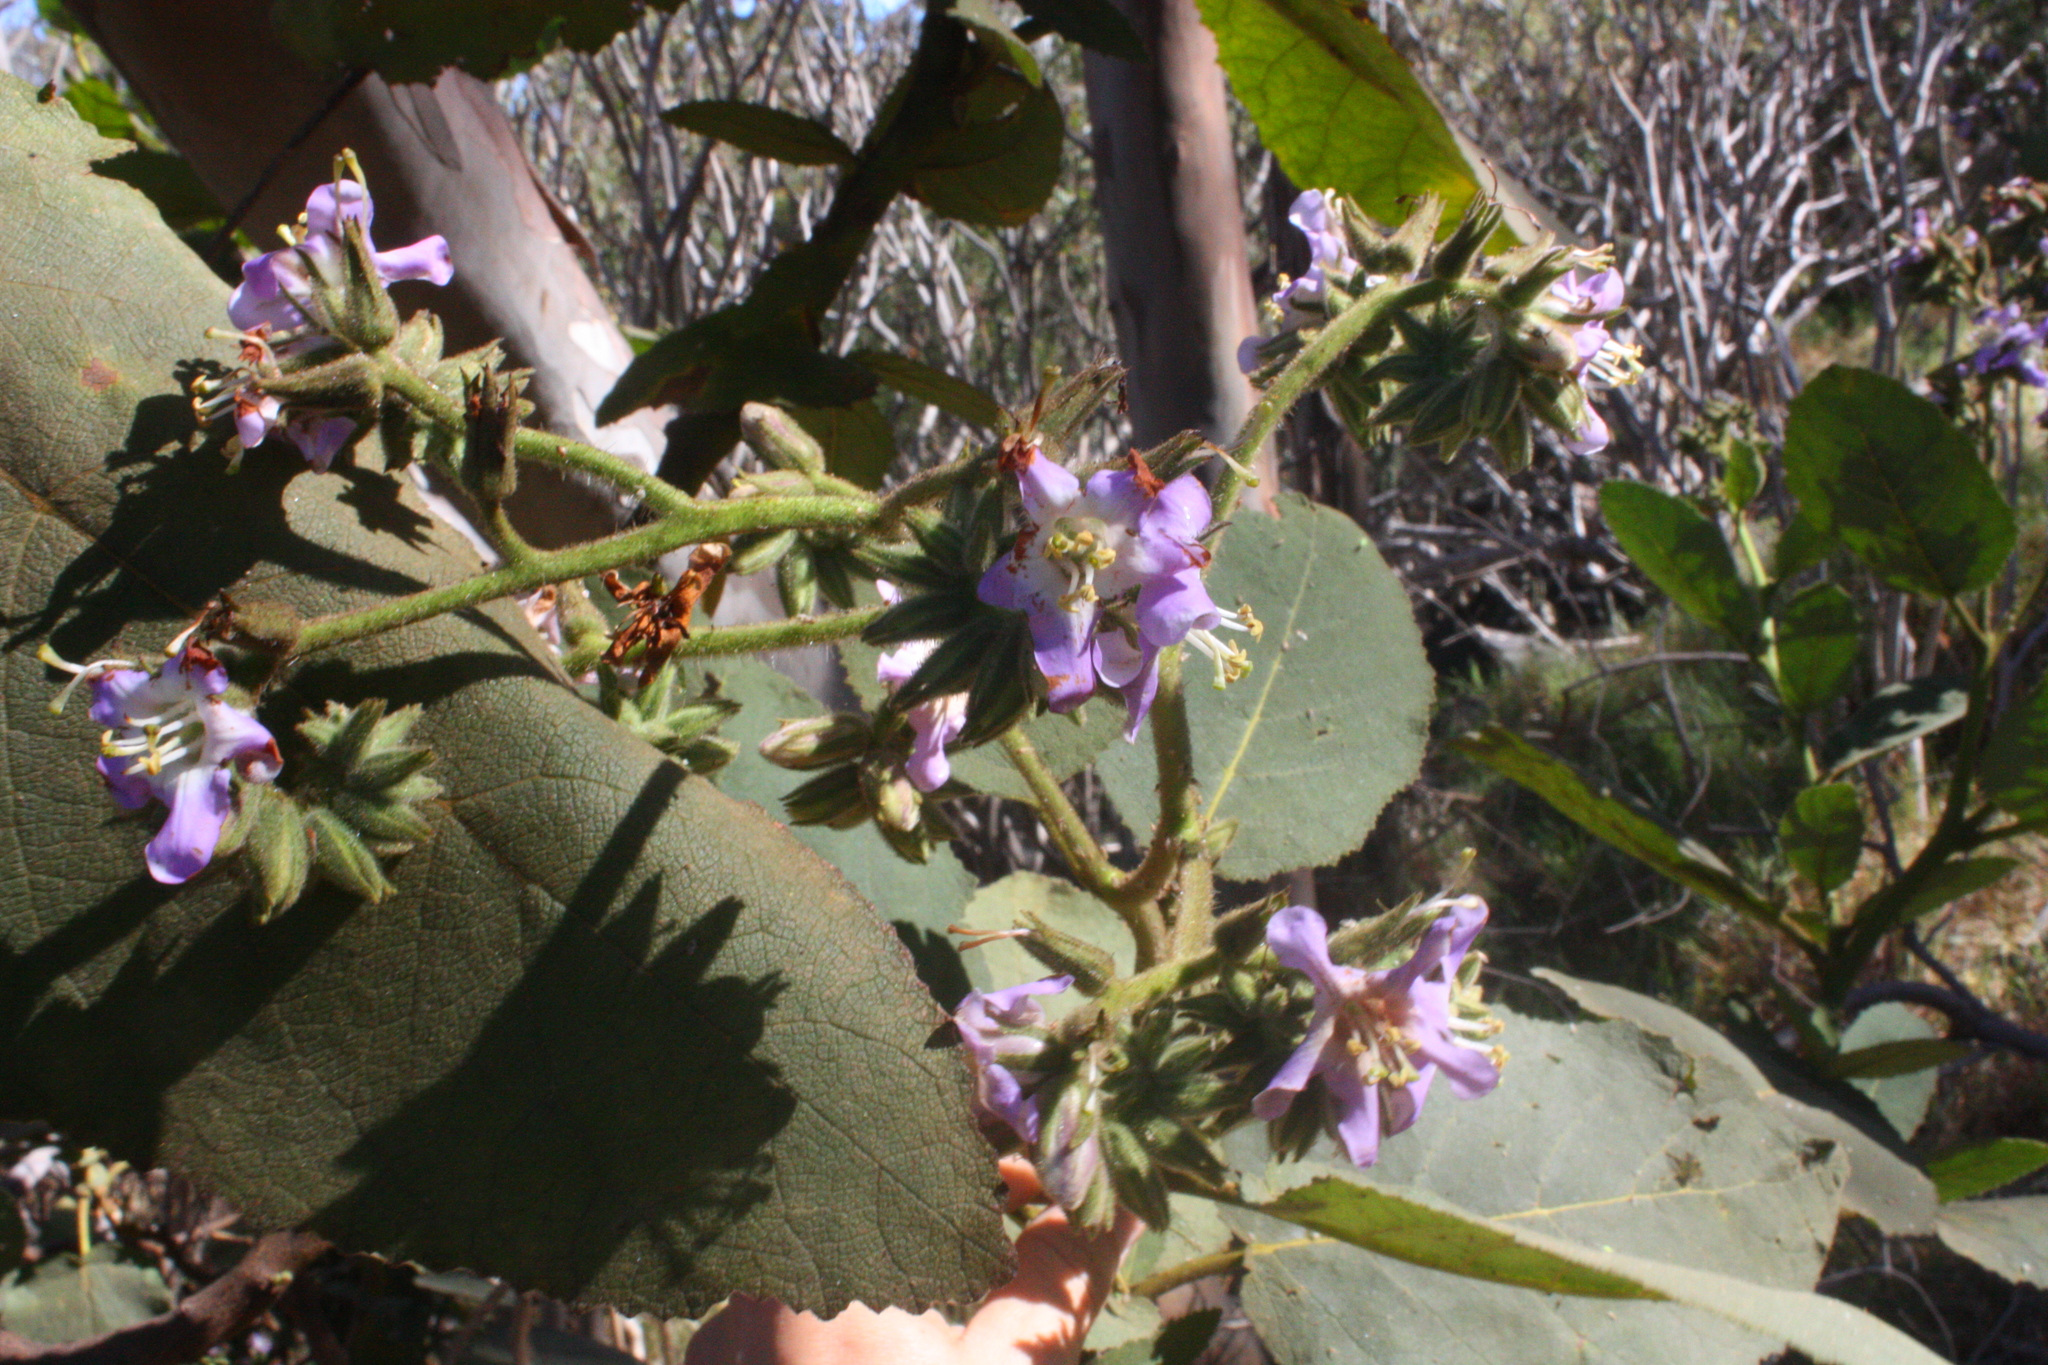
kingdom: Plantae
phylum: Tracheophyta
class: Magnoliopsida
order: Boraginales
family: Namaceae
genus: Wigandia
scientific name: Wigandia urens
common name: Caracus wigandia
